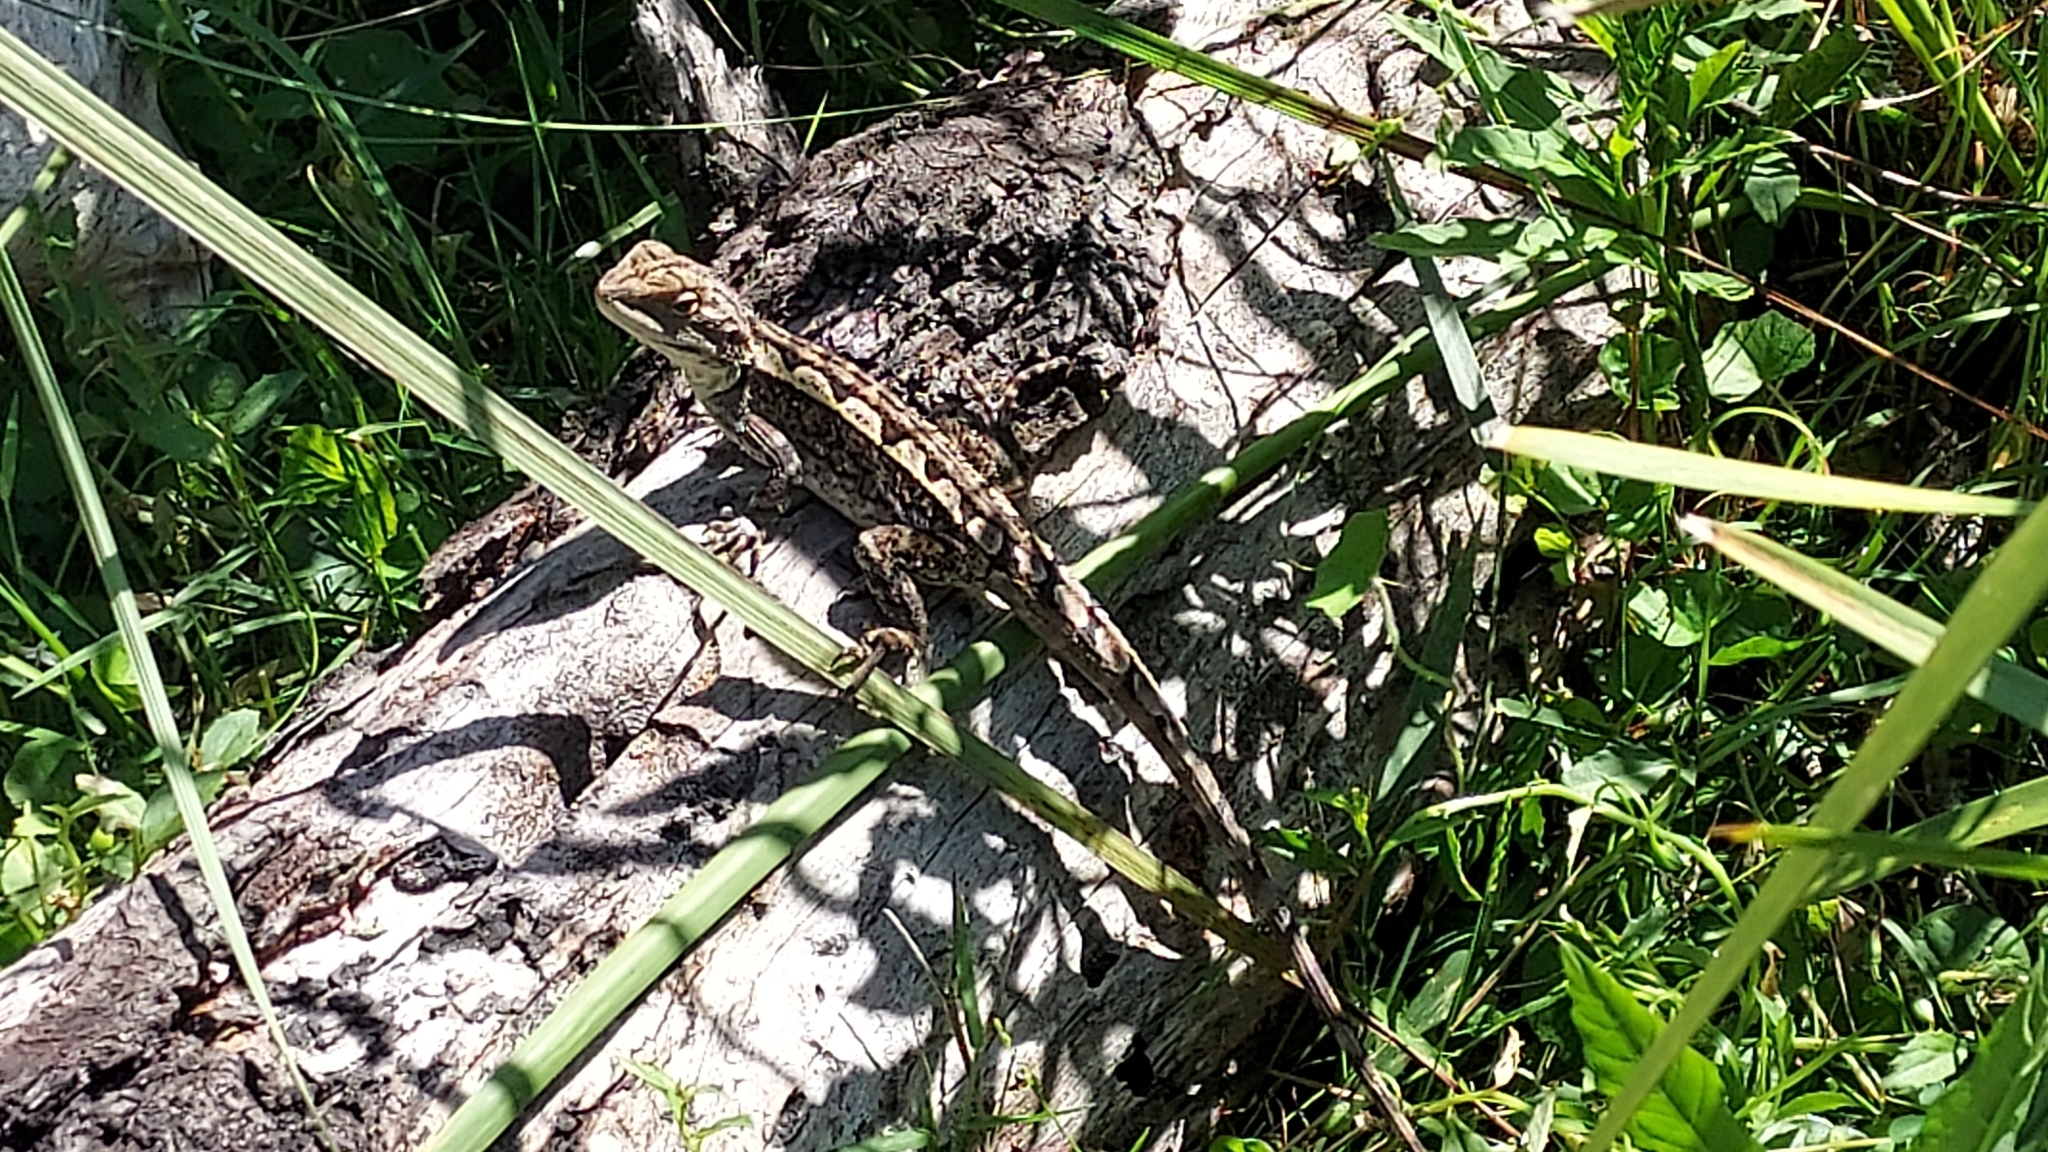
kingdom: Animalia
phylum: Chordata
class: Squamata
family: Agamidae
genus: Amphibolurus
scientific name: Amphibolurus muricatus
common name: Jacky lizard
